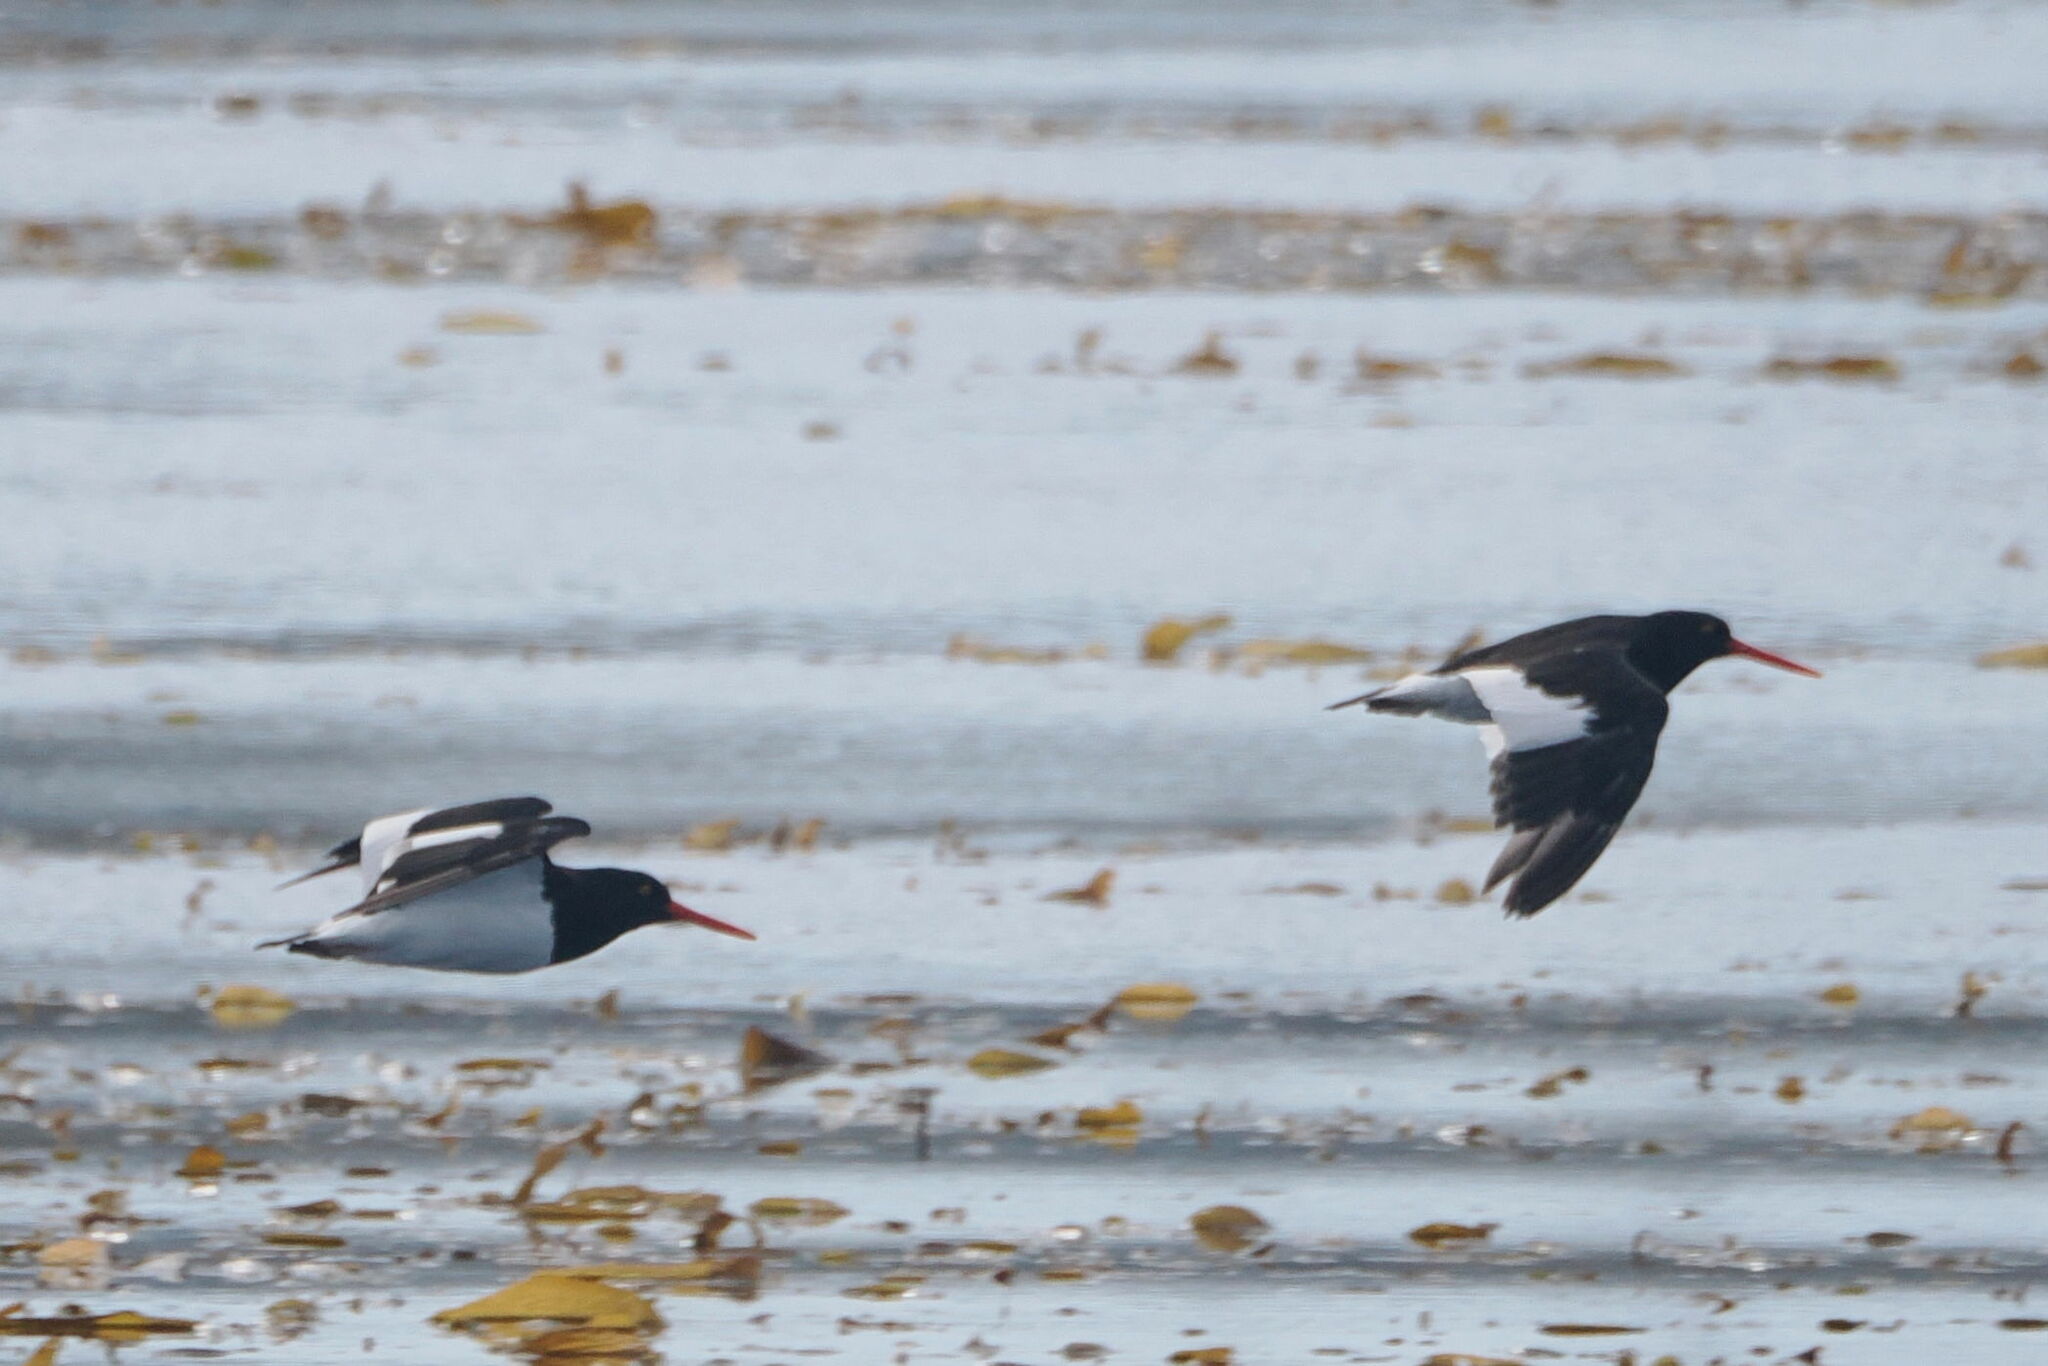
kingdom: Animalia
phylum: Chordata
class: Aves
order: Charadriiformes
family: Haematopodidae
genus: Haematopus
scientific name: Haematopus leucopodus
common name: Magellanic oystercatcher
